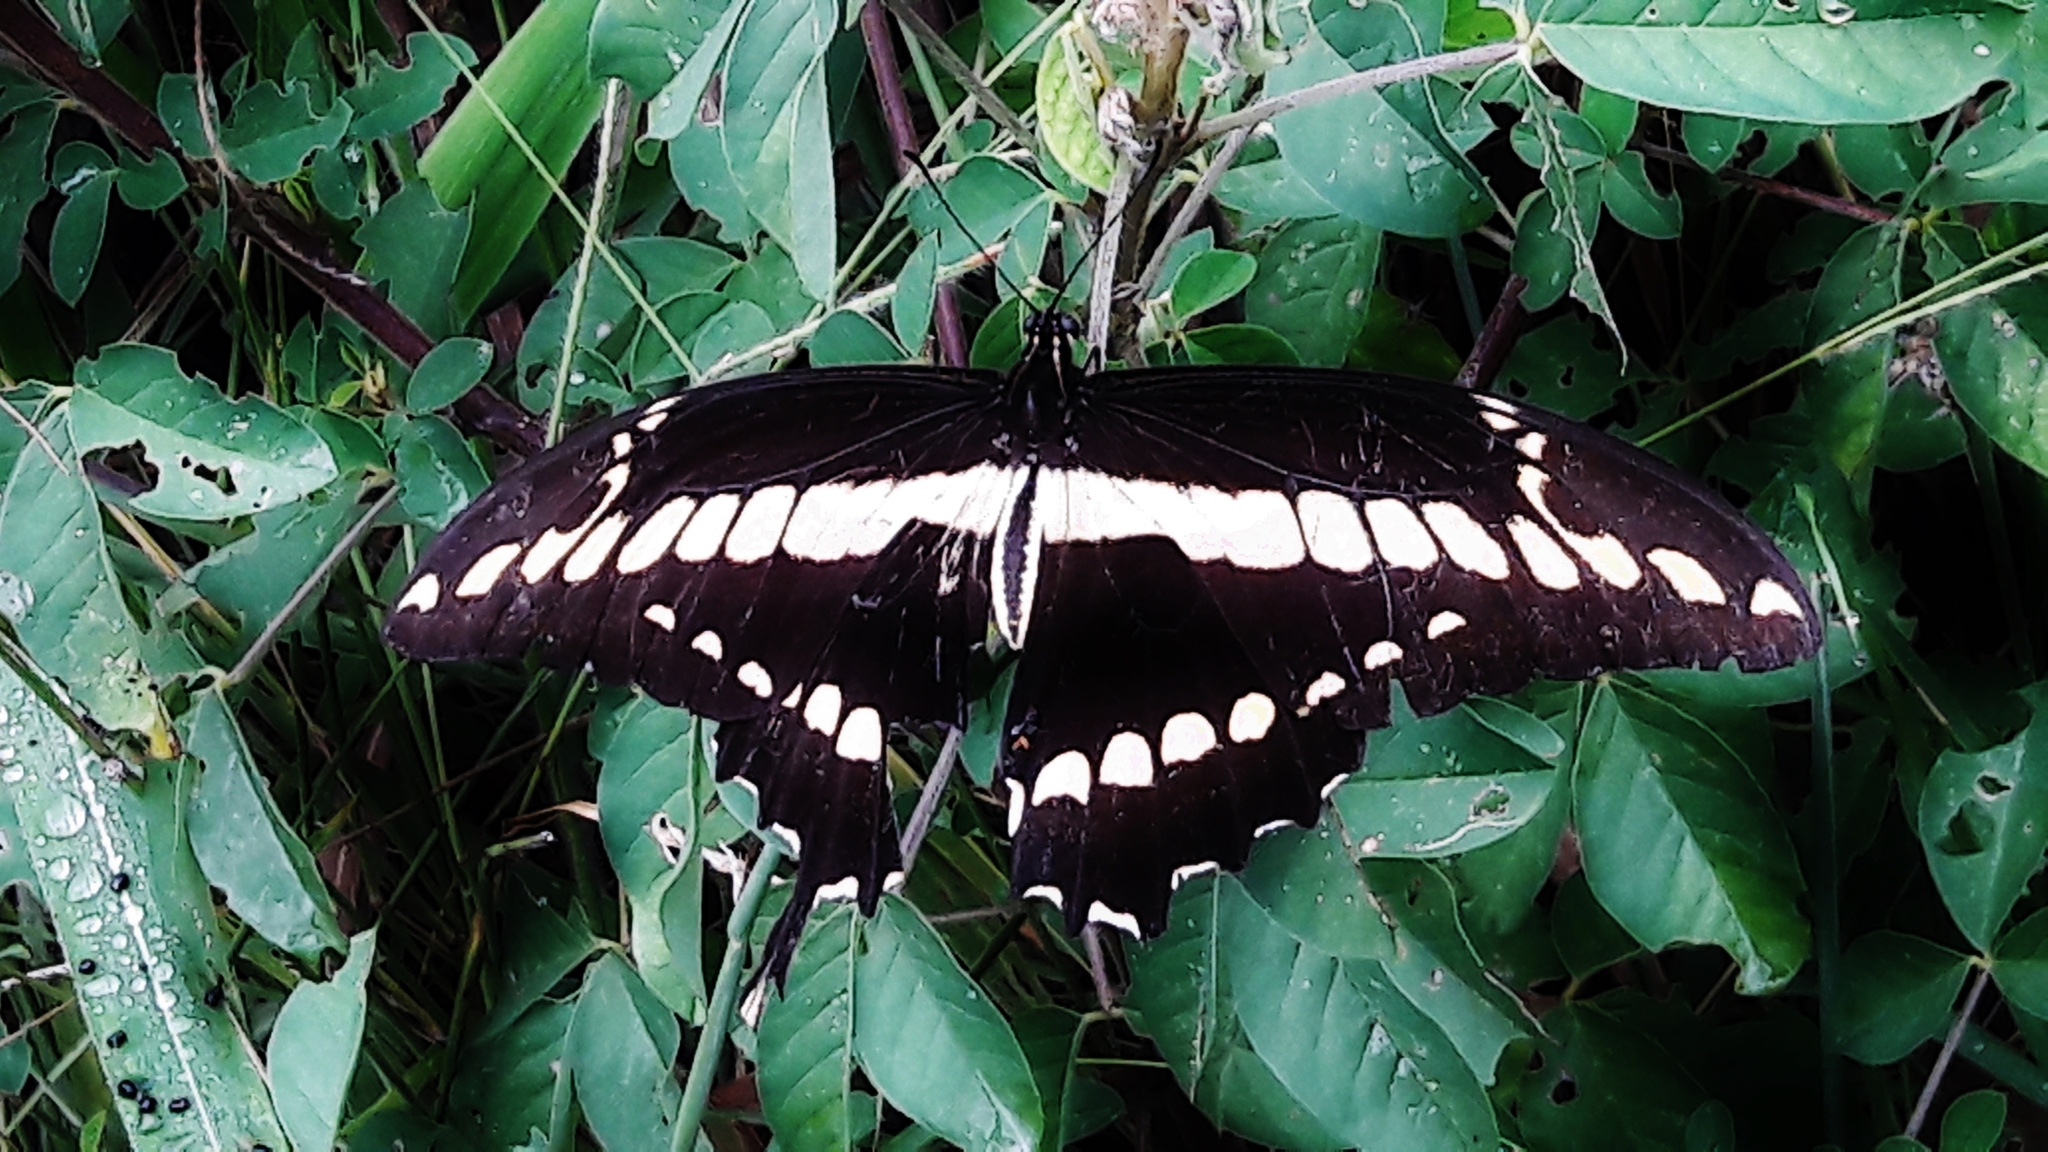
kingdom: Animalia
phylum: Arthropoda
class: Insecta
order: Lepidoptera
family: Papilionidae
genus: Papilio
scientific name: Papilio thoas
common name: King swallowtail
